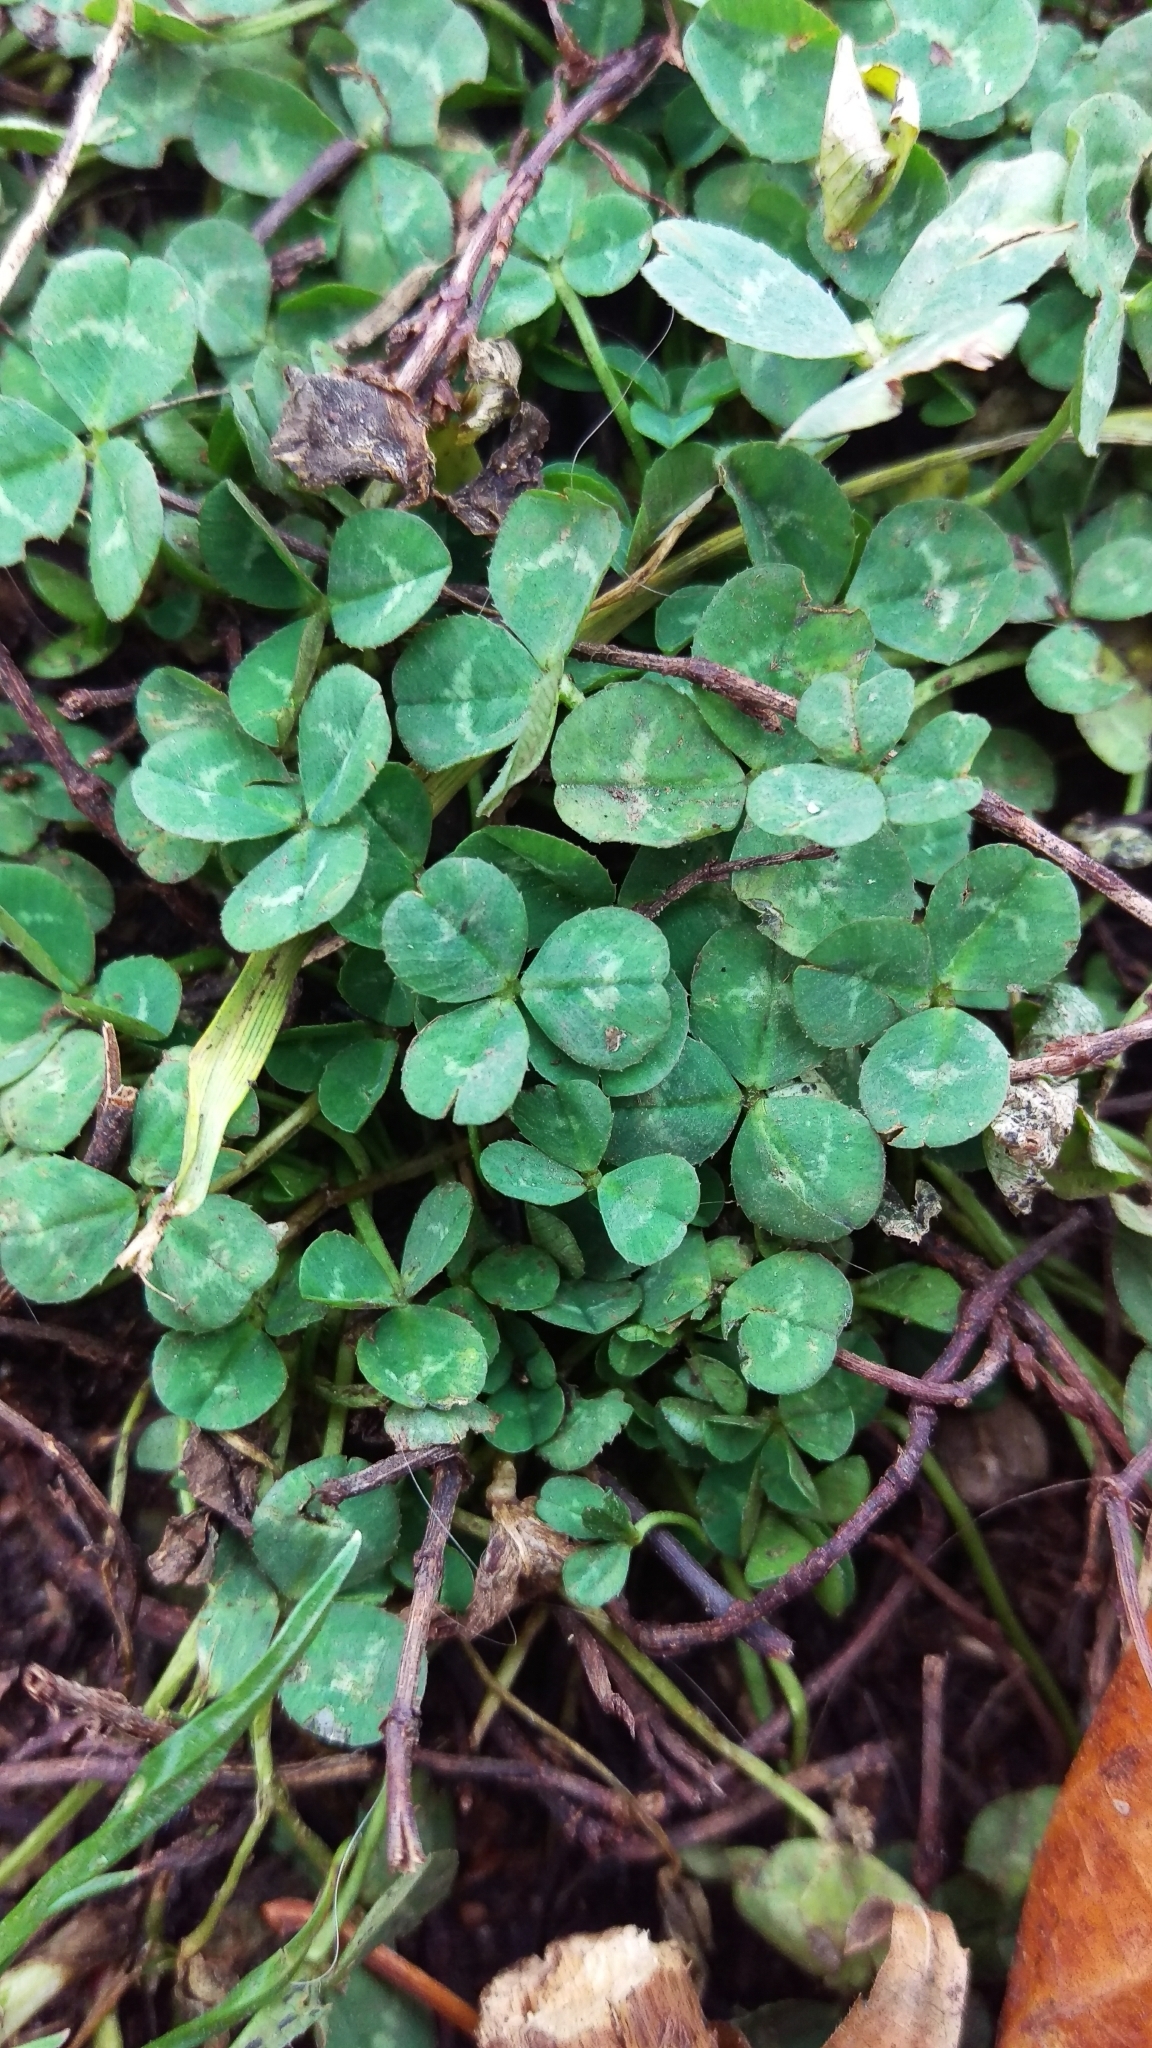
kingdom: Plantae
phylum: Tracheophyta
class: Magnoliopsida
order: Fabales
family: Fabaceae
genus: Trifolium
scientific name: Trifolium repens
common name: White clover
